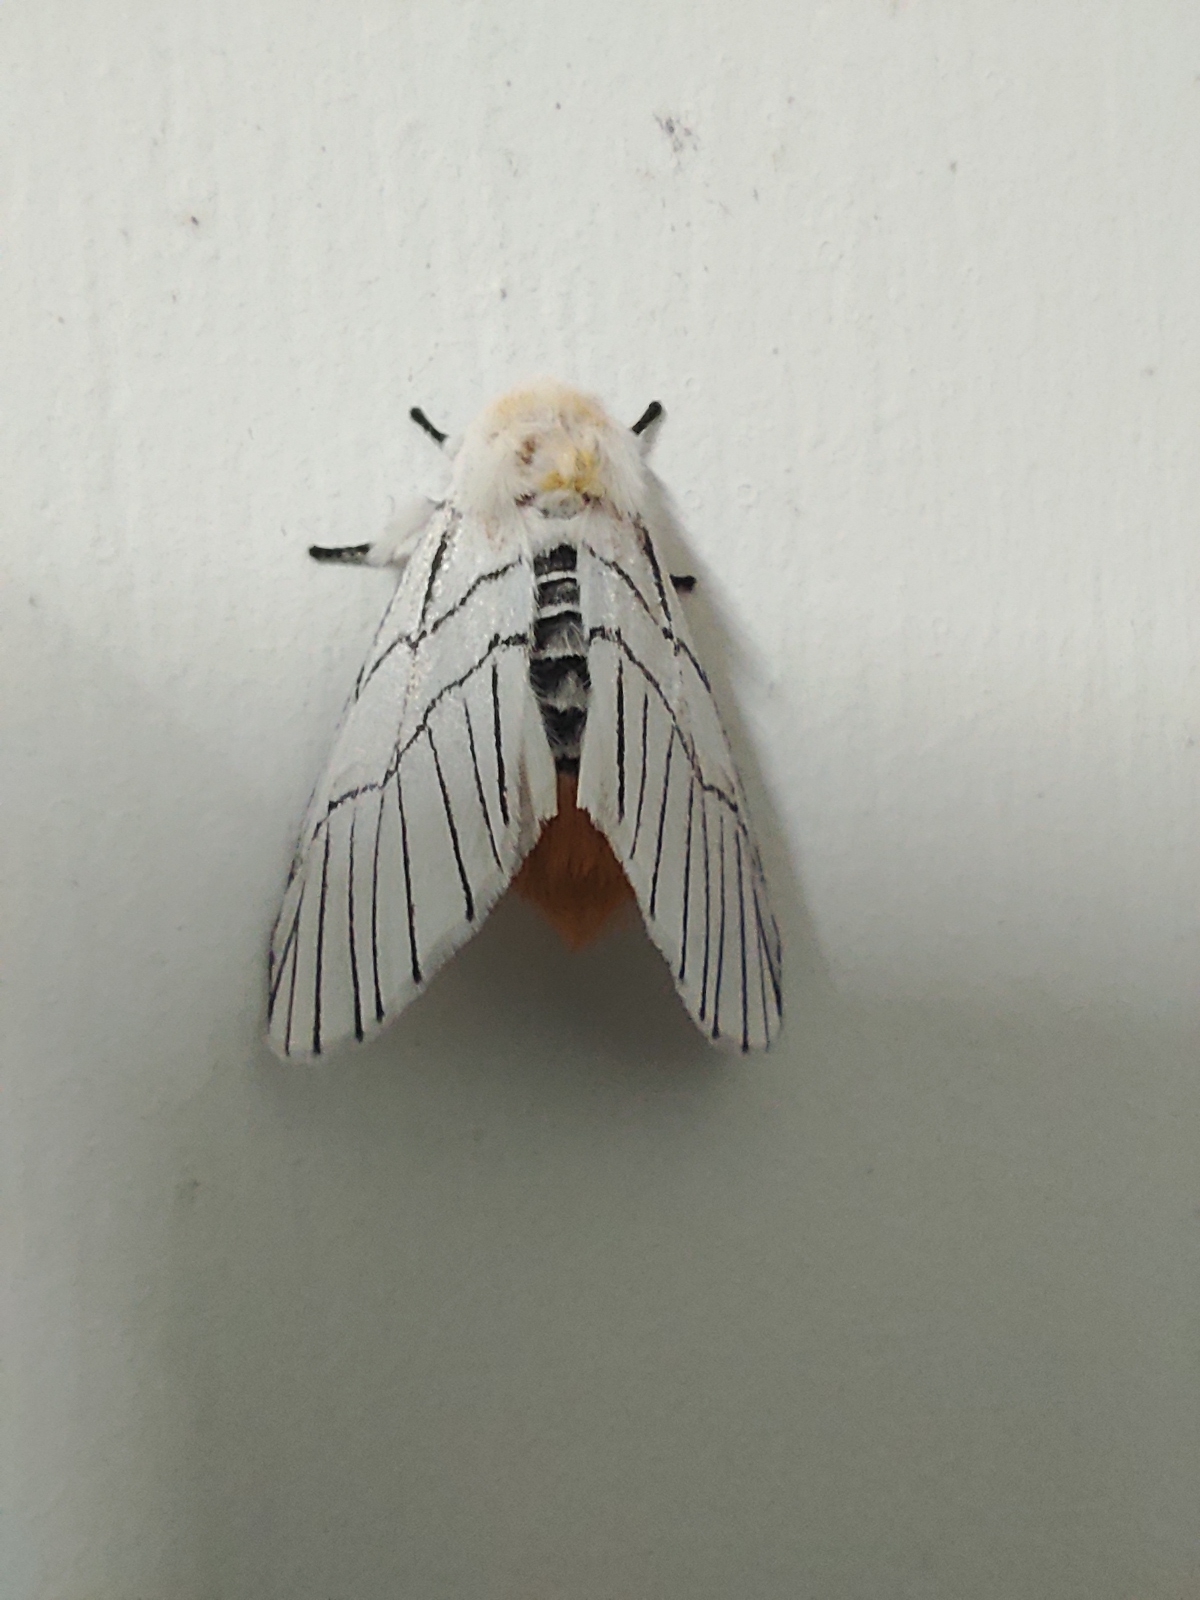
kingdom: Animalia
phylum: Arthropoda
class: Insecta
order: Lepidoptera
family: Notodontidae
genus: Oligoclona
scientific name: Oligoclona chrysolopha
